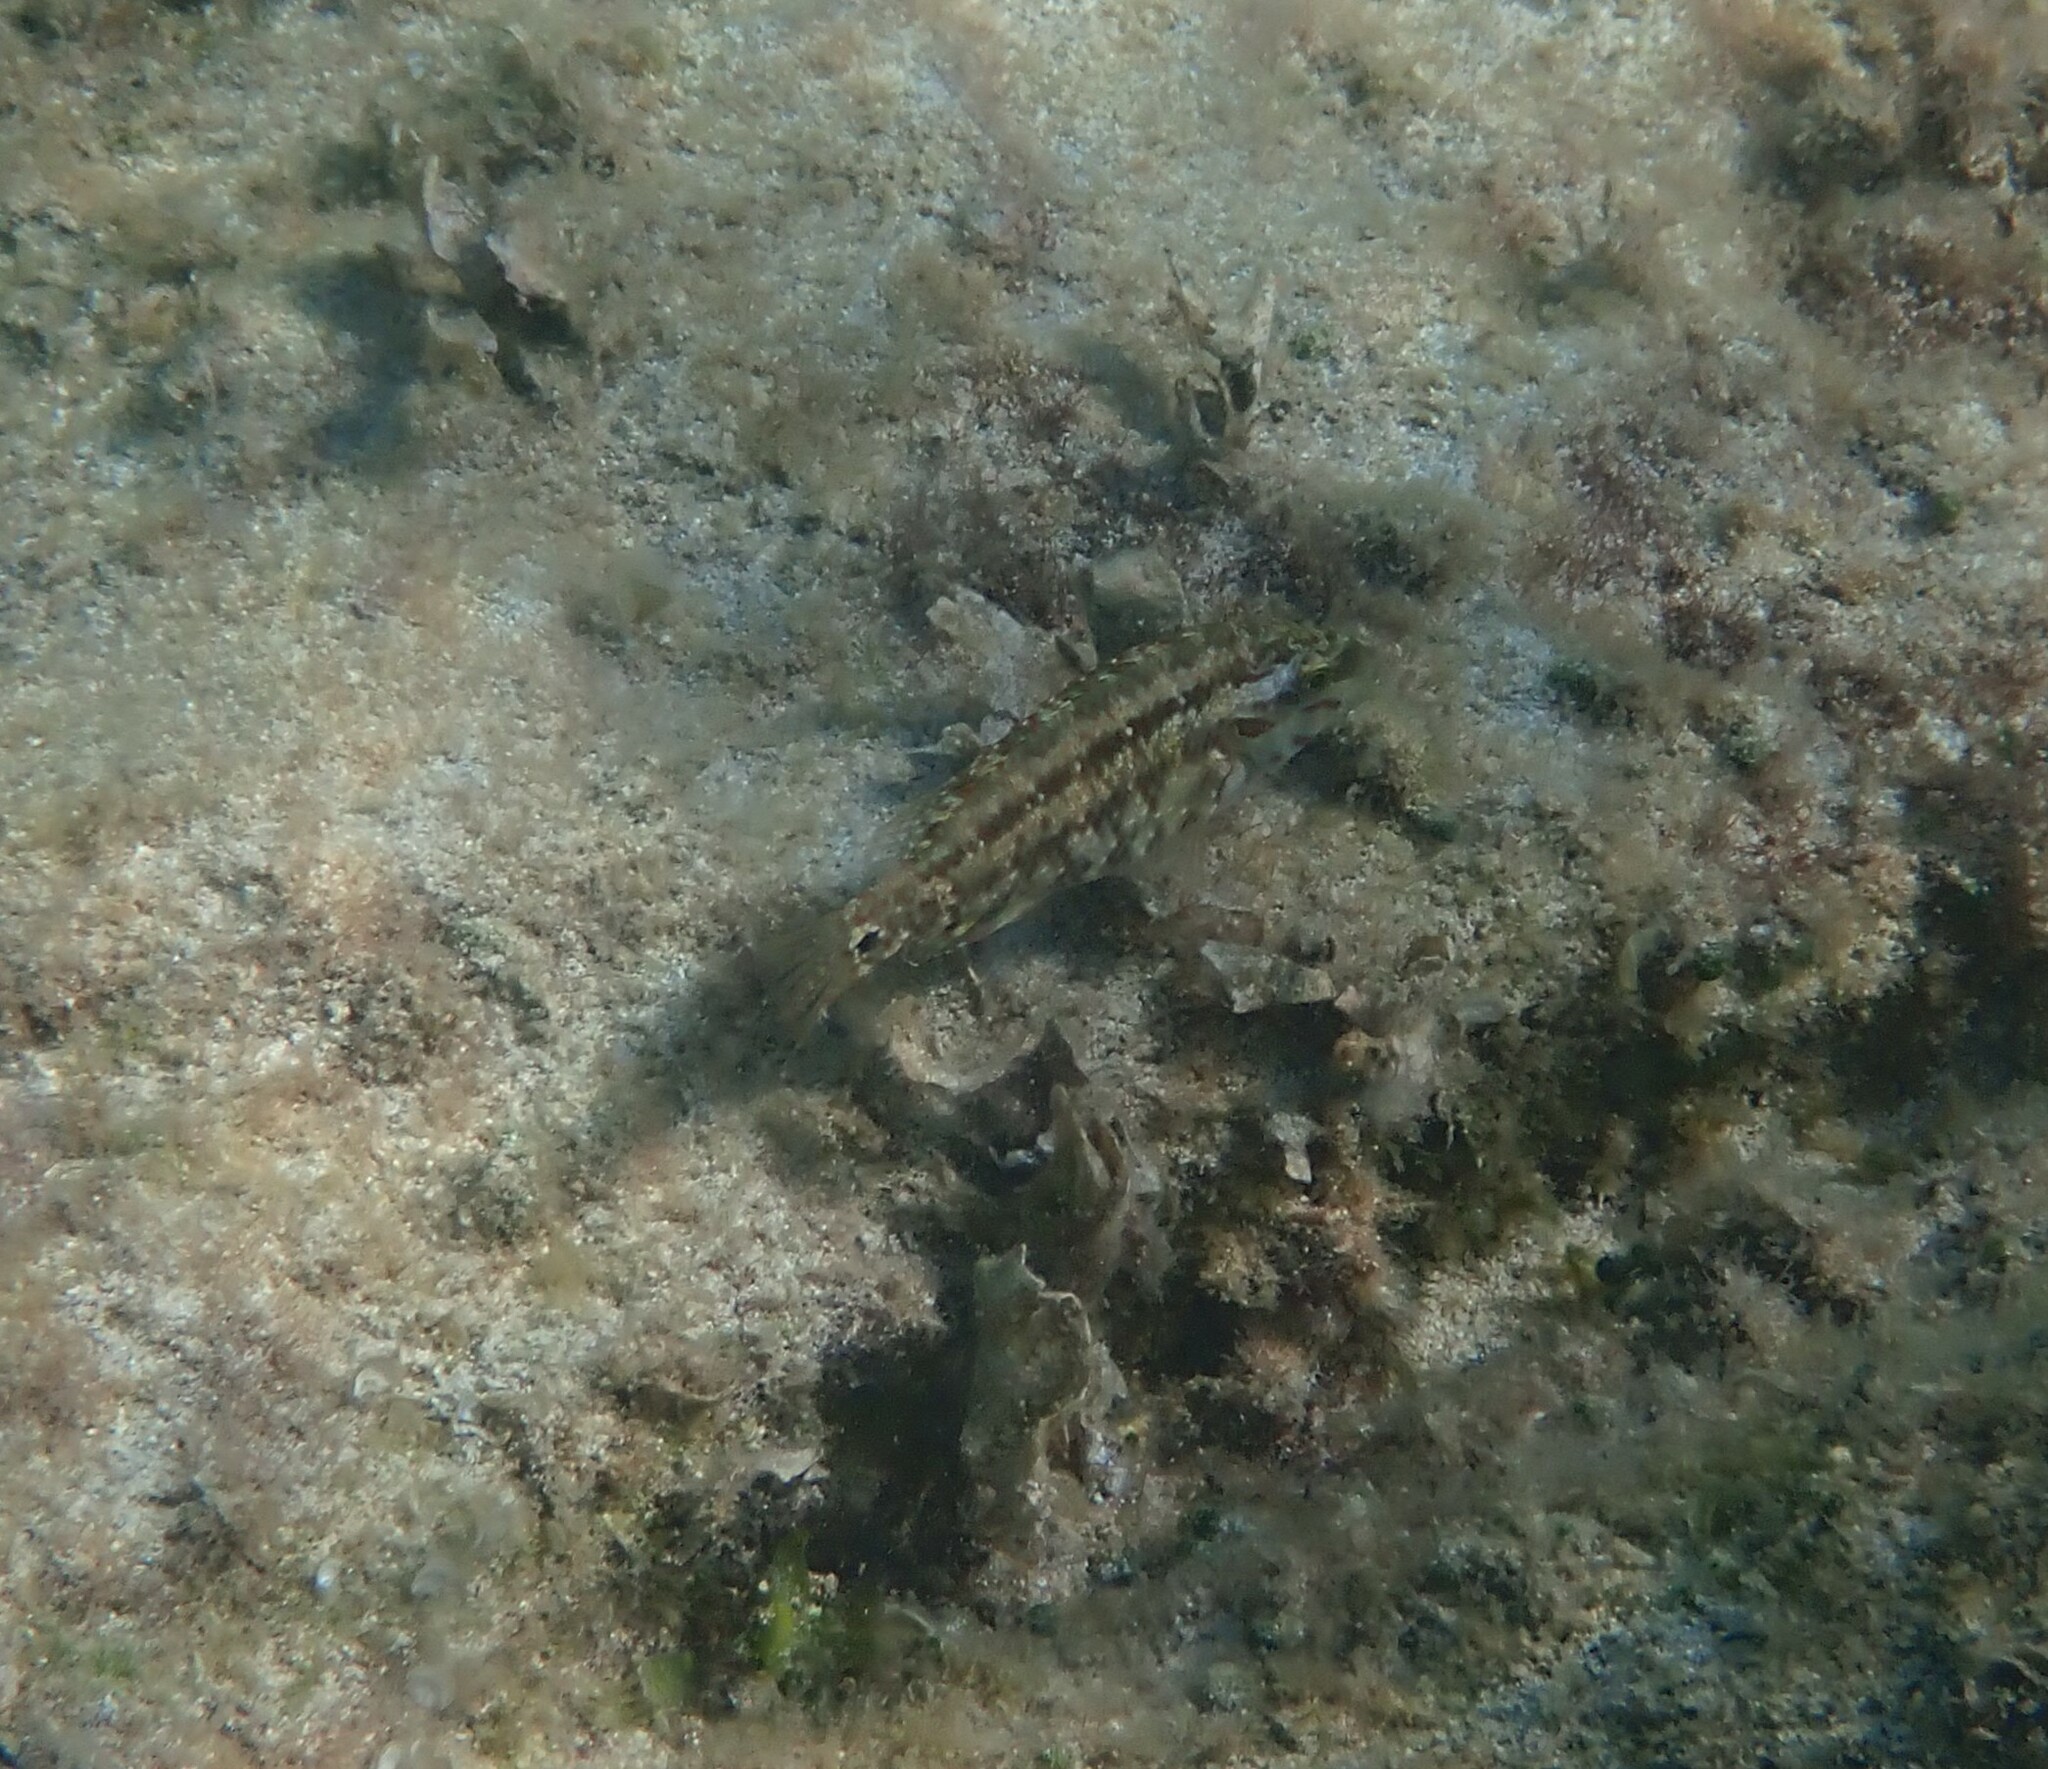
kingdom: Animalia
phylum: Chordata
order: Perciformes
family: Labridae
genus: Symphodus
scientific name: Symphodus roissali
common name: Five-spotted wrasse
